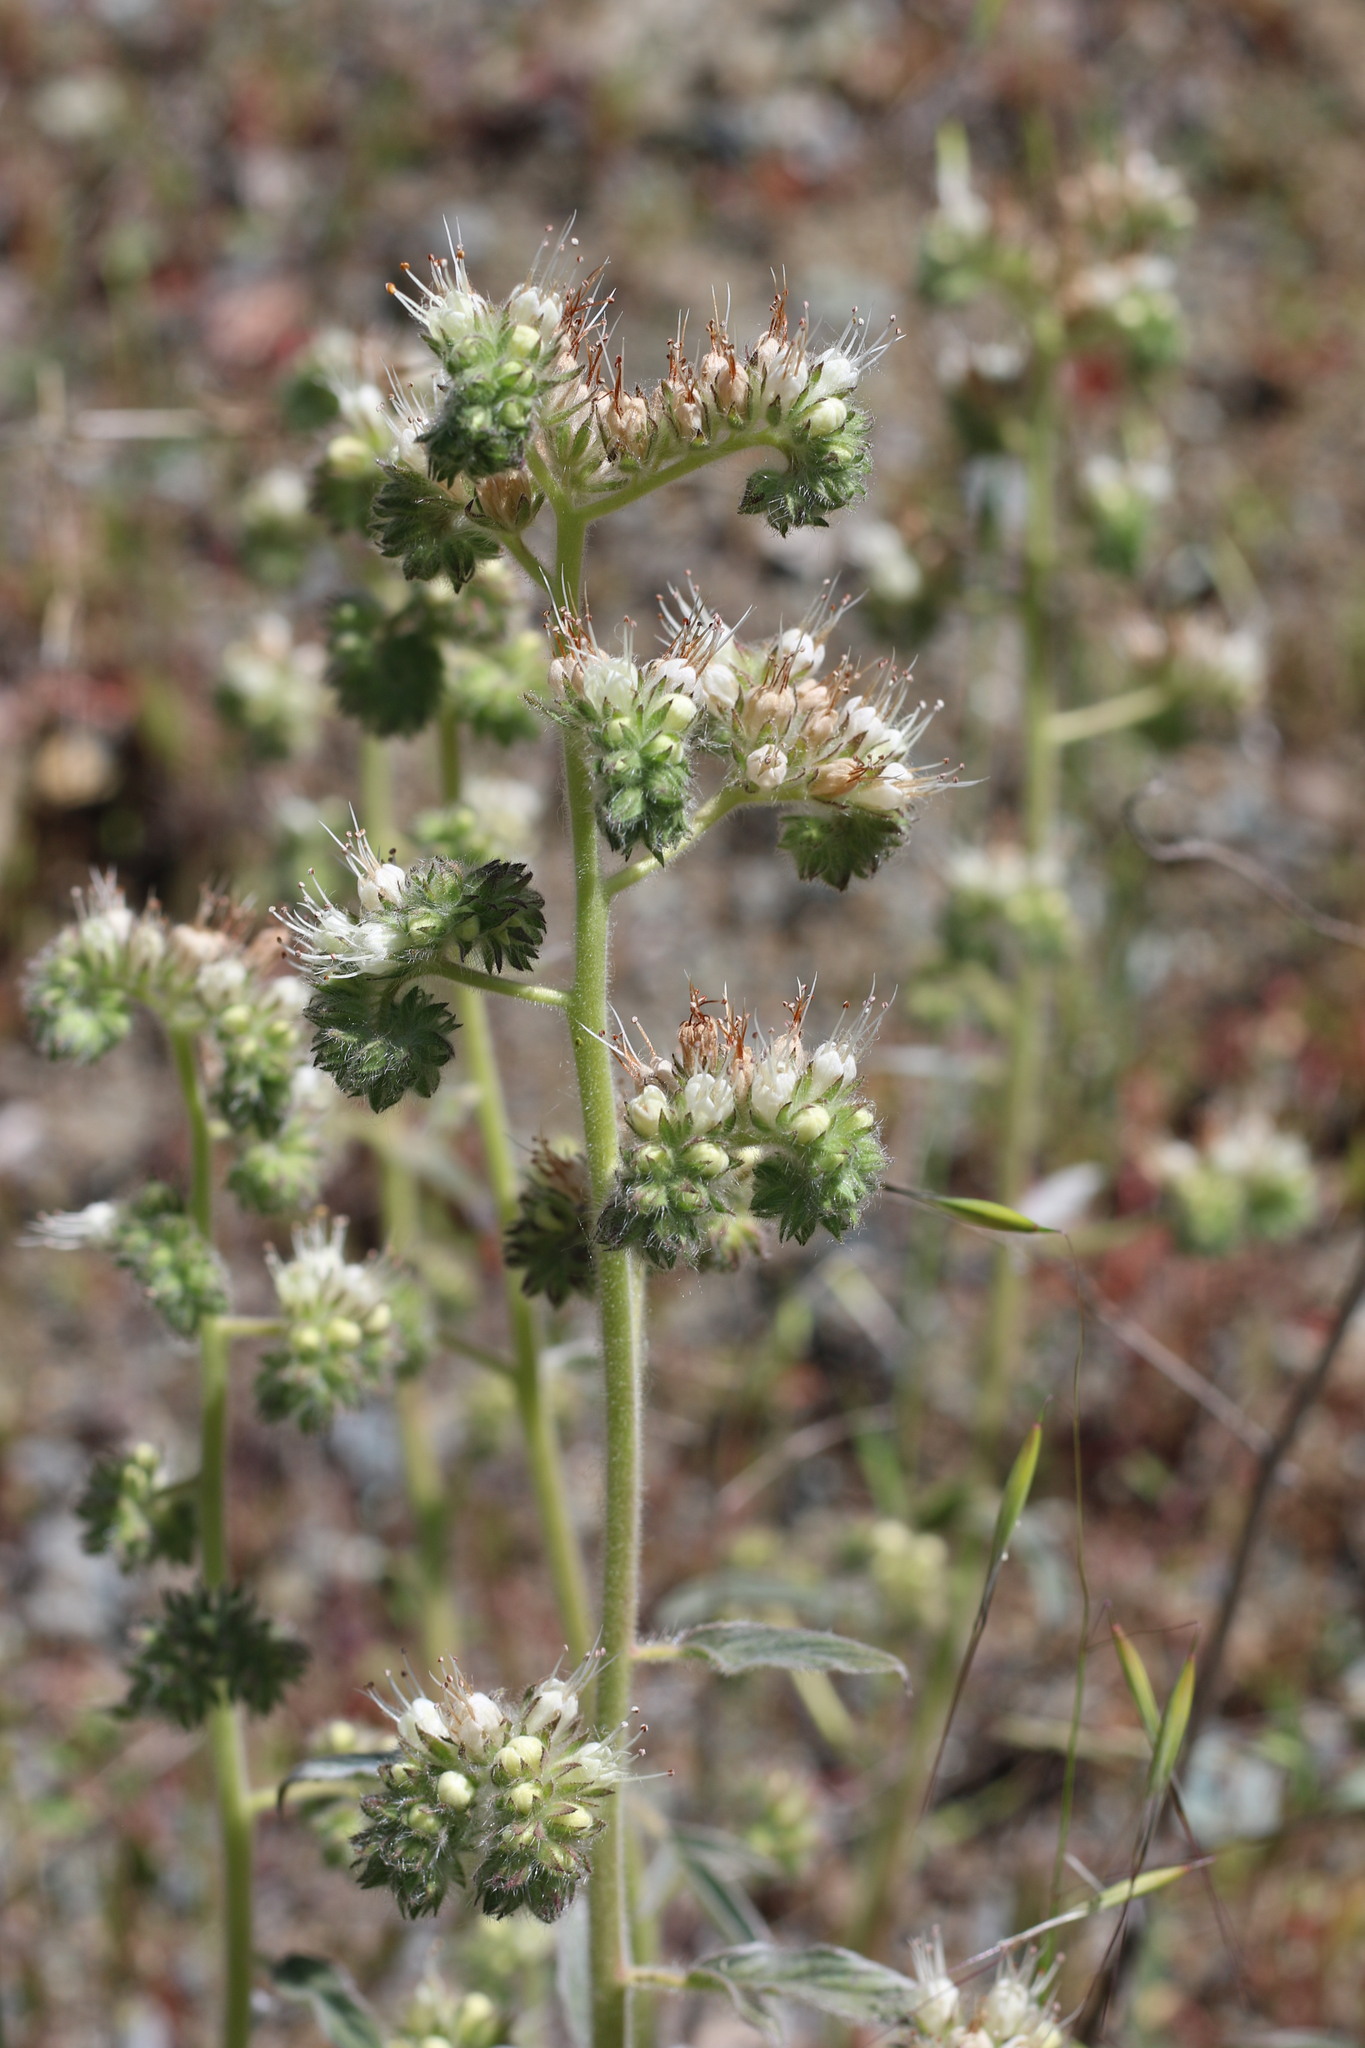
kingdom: Plantae
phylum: Tracheophyta
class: Magnoliopsida
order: Boraginales
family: Hydrophyllaceae
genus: Phacelia
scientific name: Phacelia imbricata
